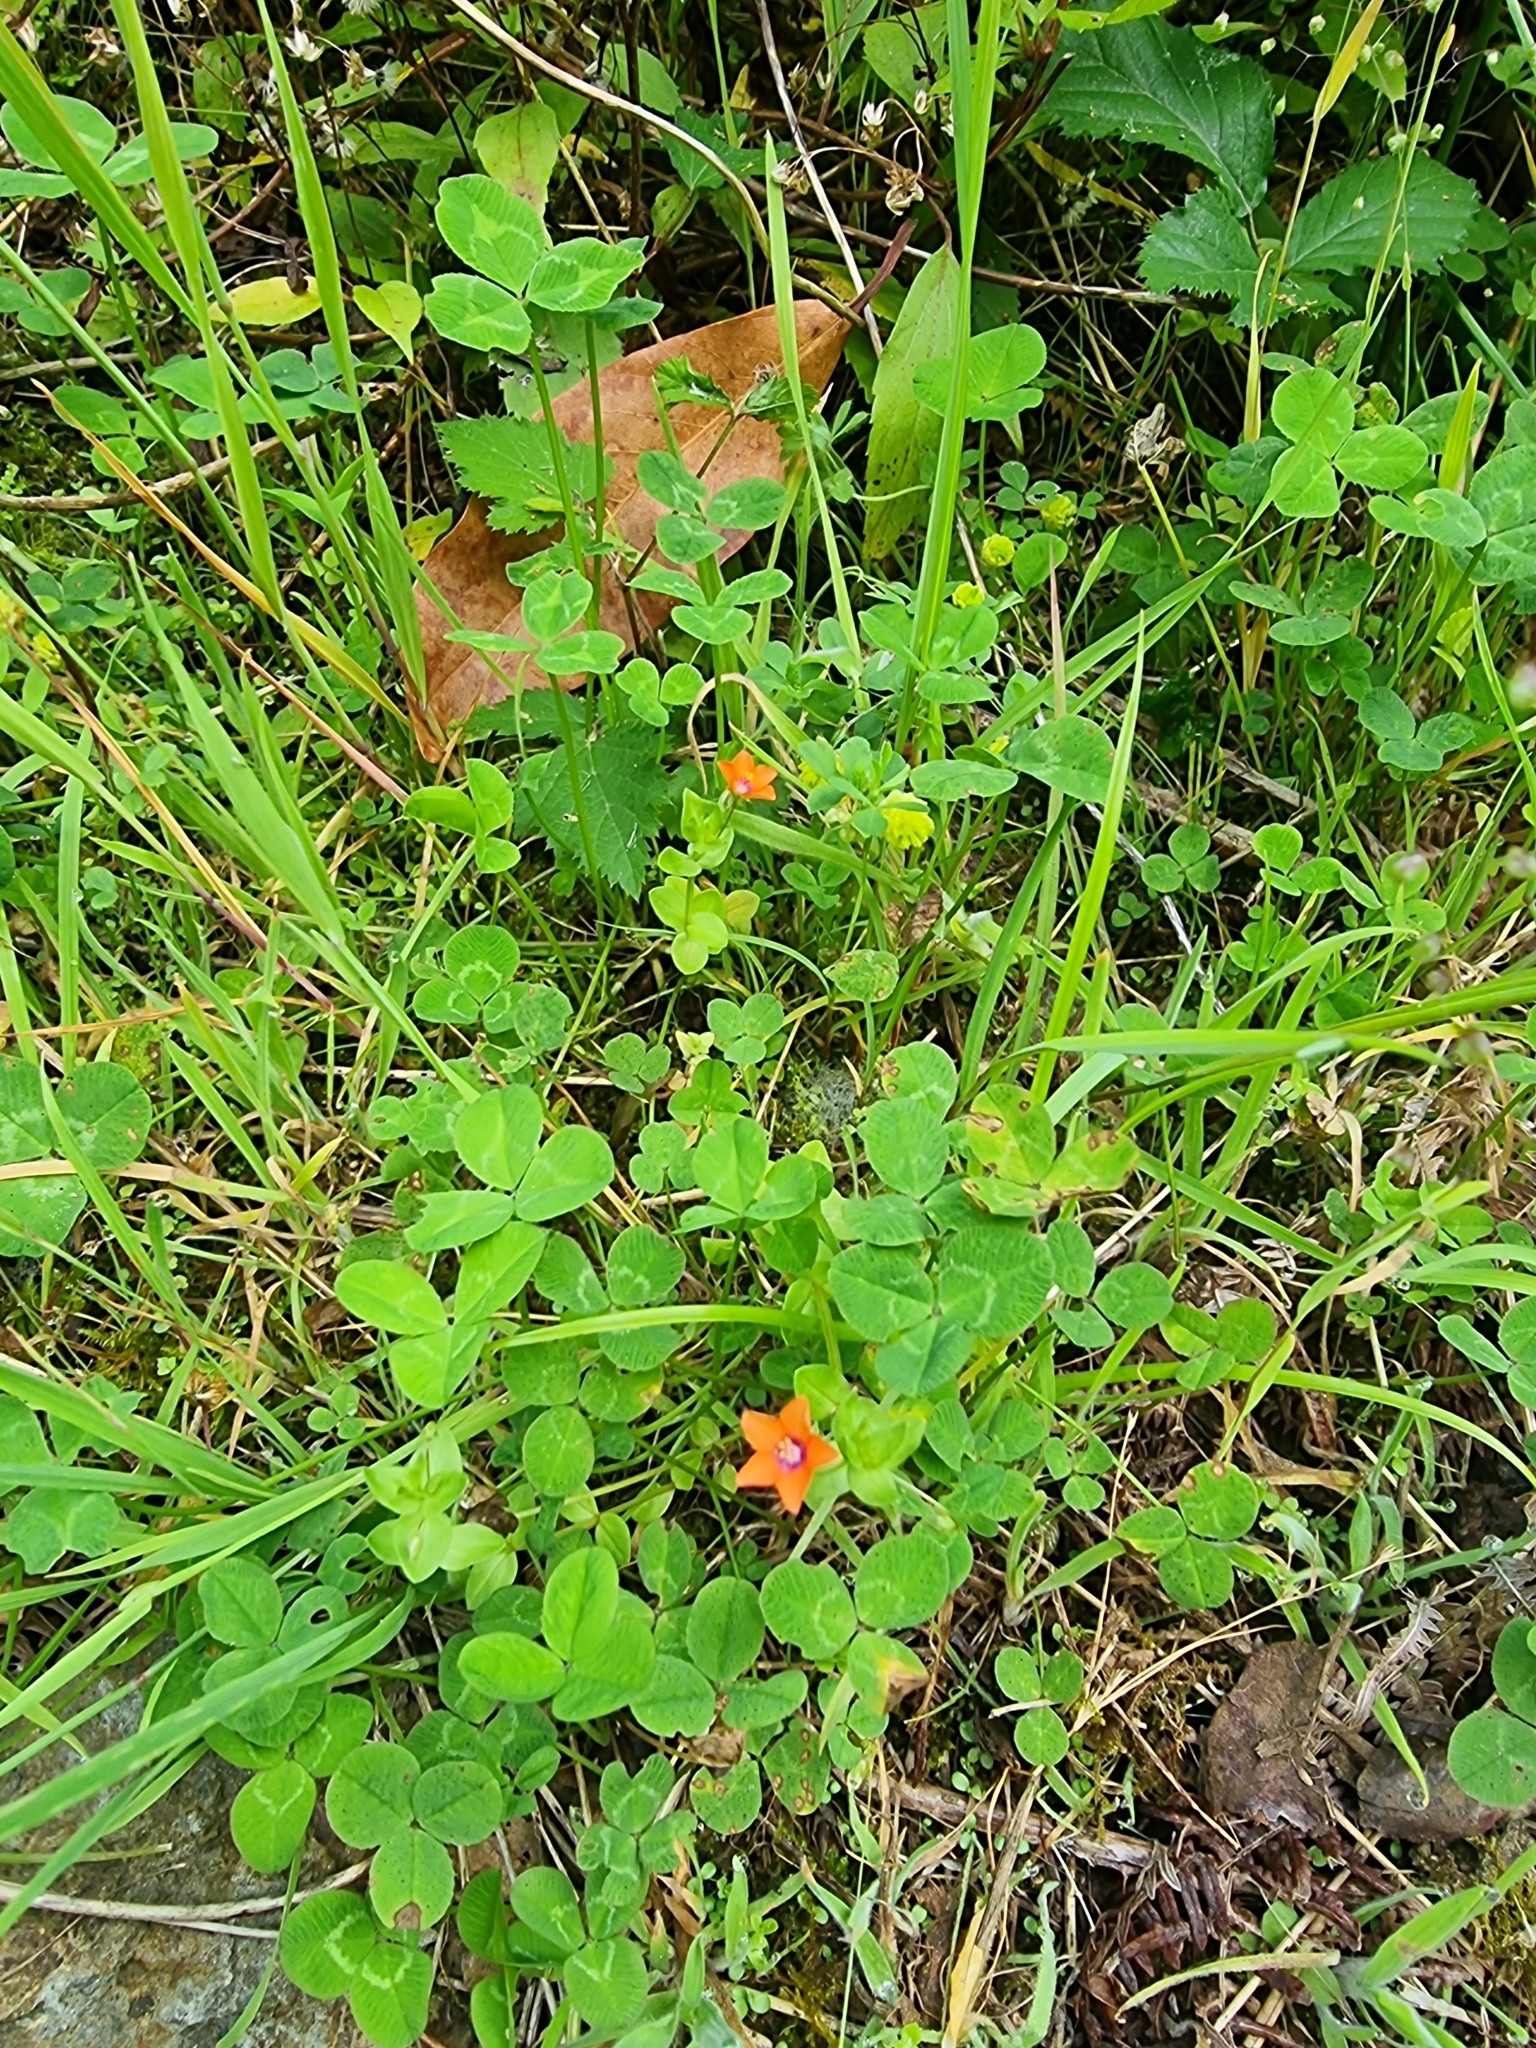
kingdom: Plantae
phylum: Tracheophyta
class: Magnoliopsida
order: Ericales
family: Primulaceae
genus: Lysimachia
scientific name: Lysimachia arvensis
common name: Scarlet pimpernel
